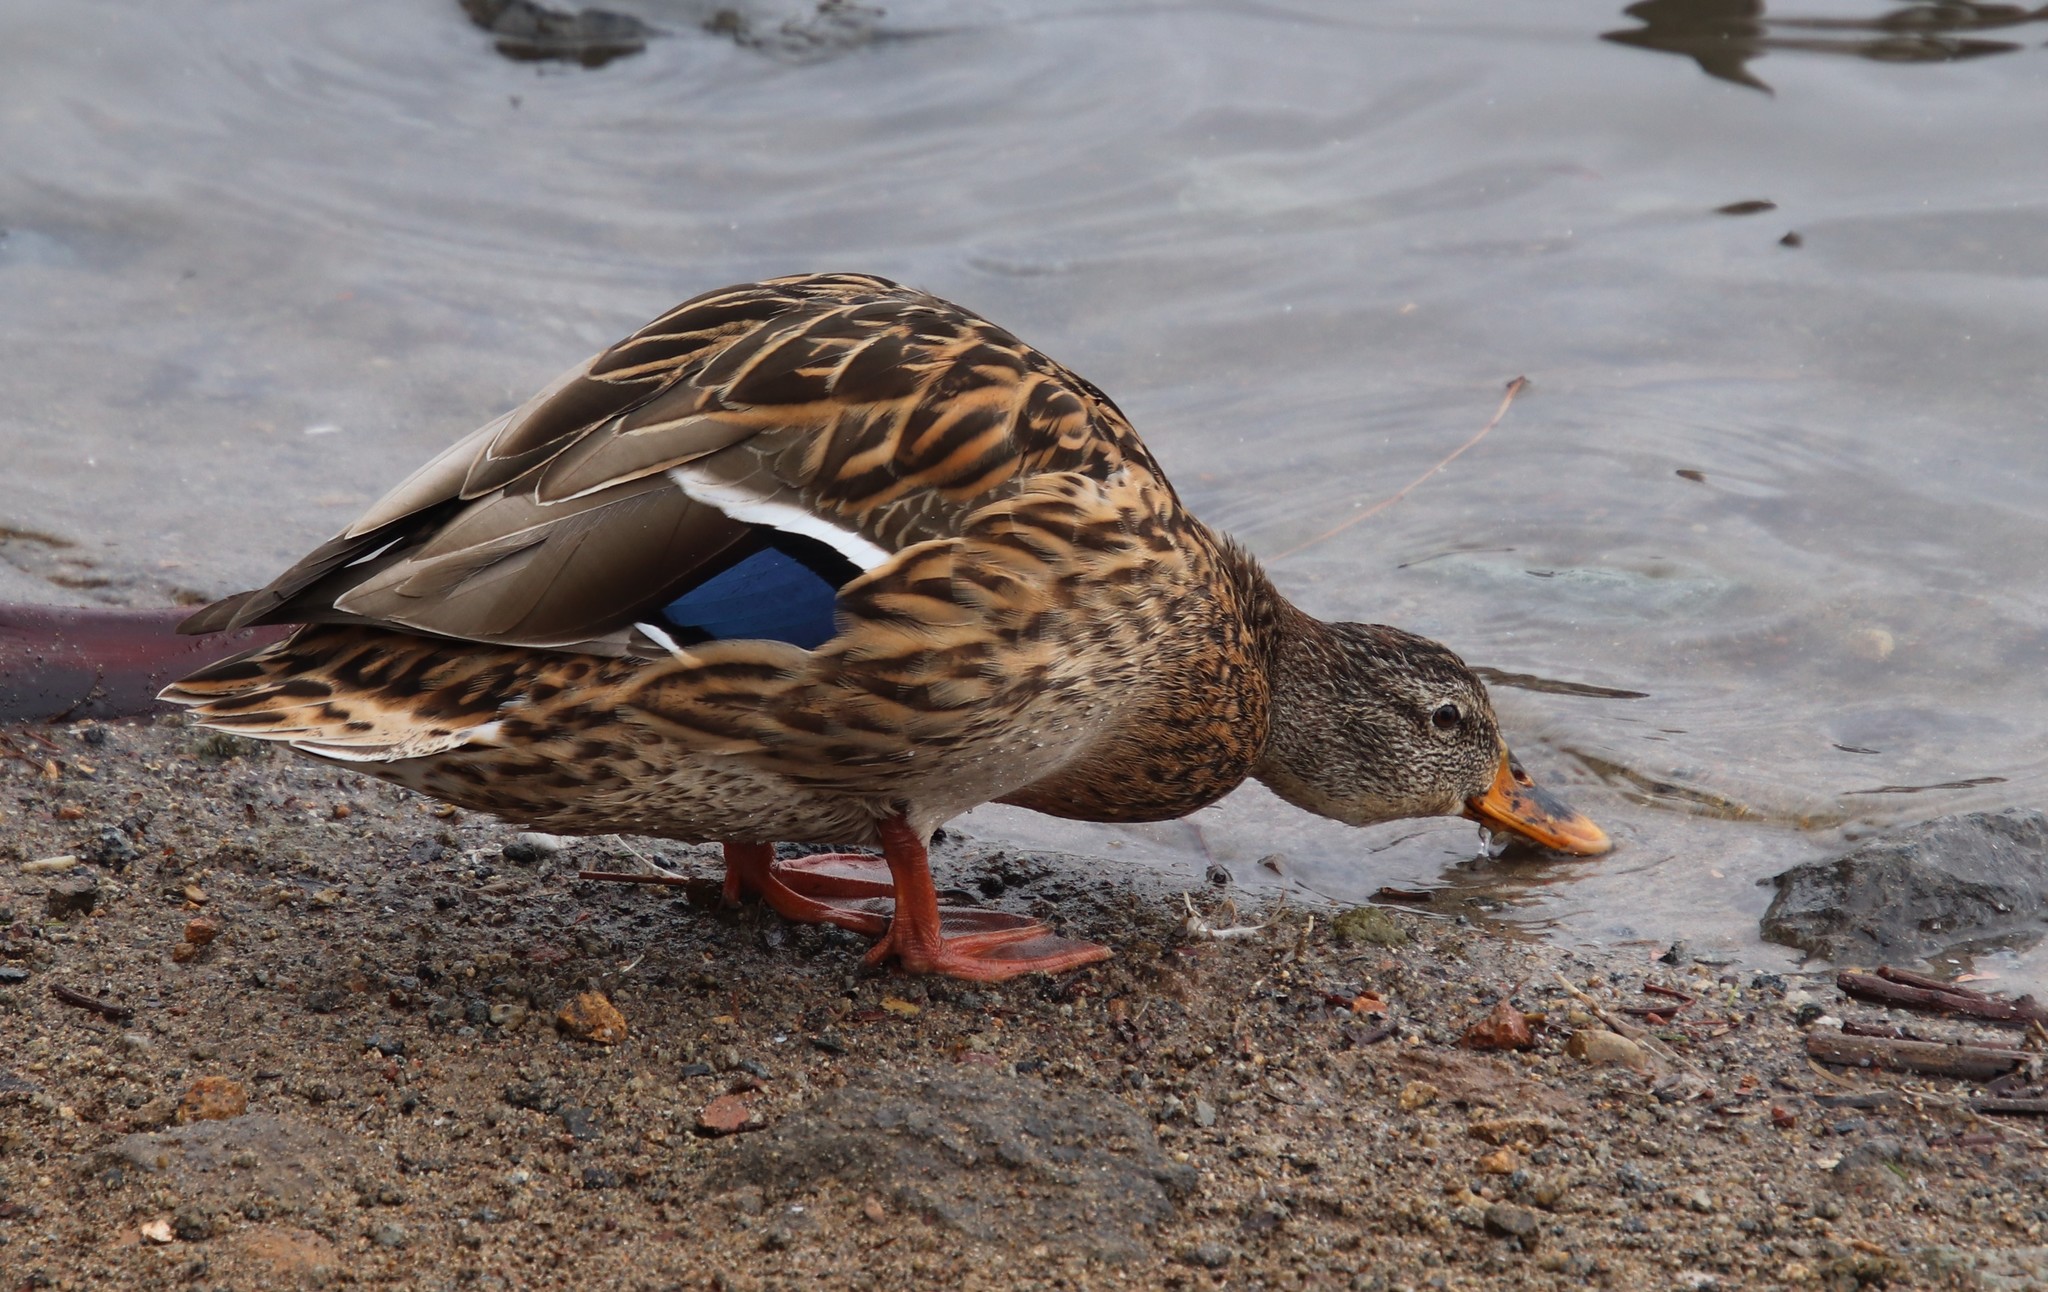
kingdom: Animalia
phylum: Chordata
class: Aves
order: Anseriformes
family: Anatidae
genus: Anas
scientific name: Anas platyrhynchos
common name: Mallard
